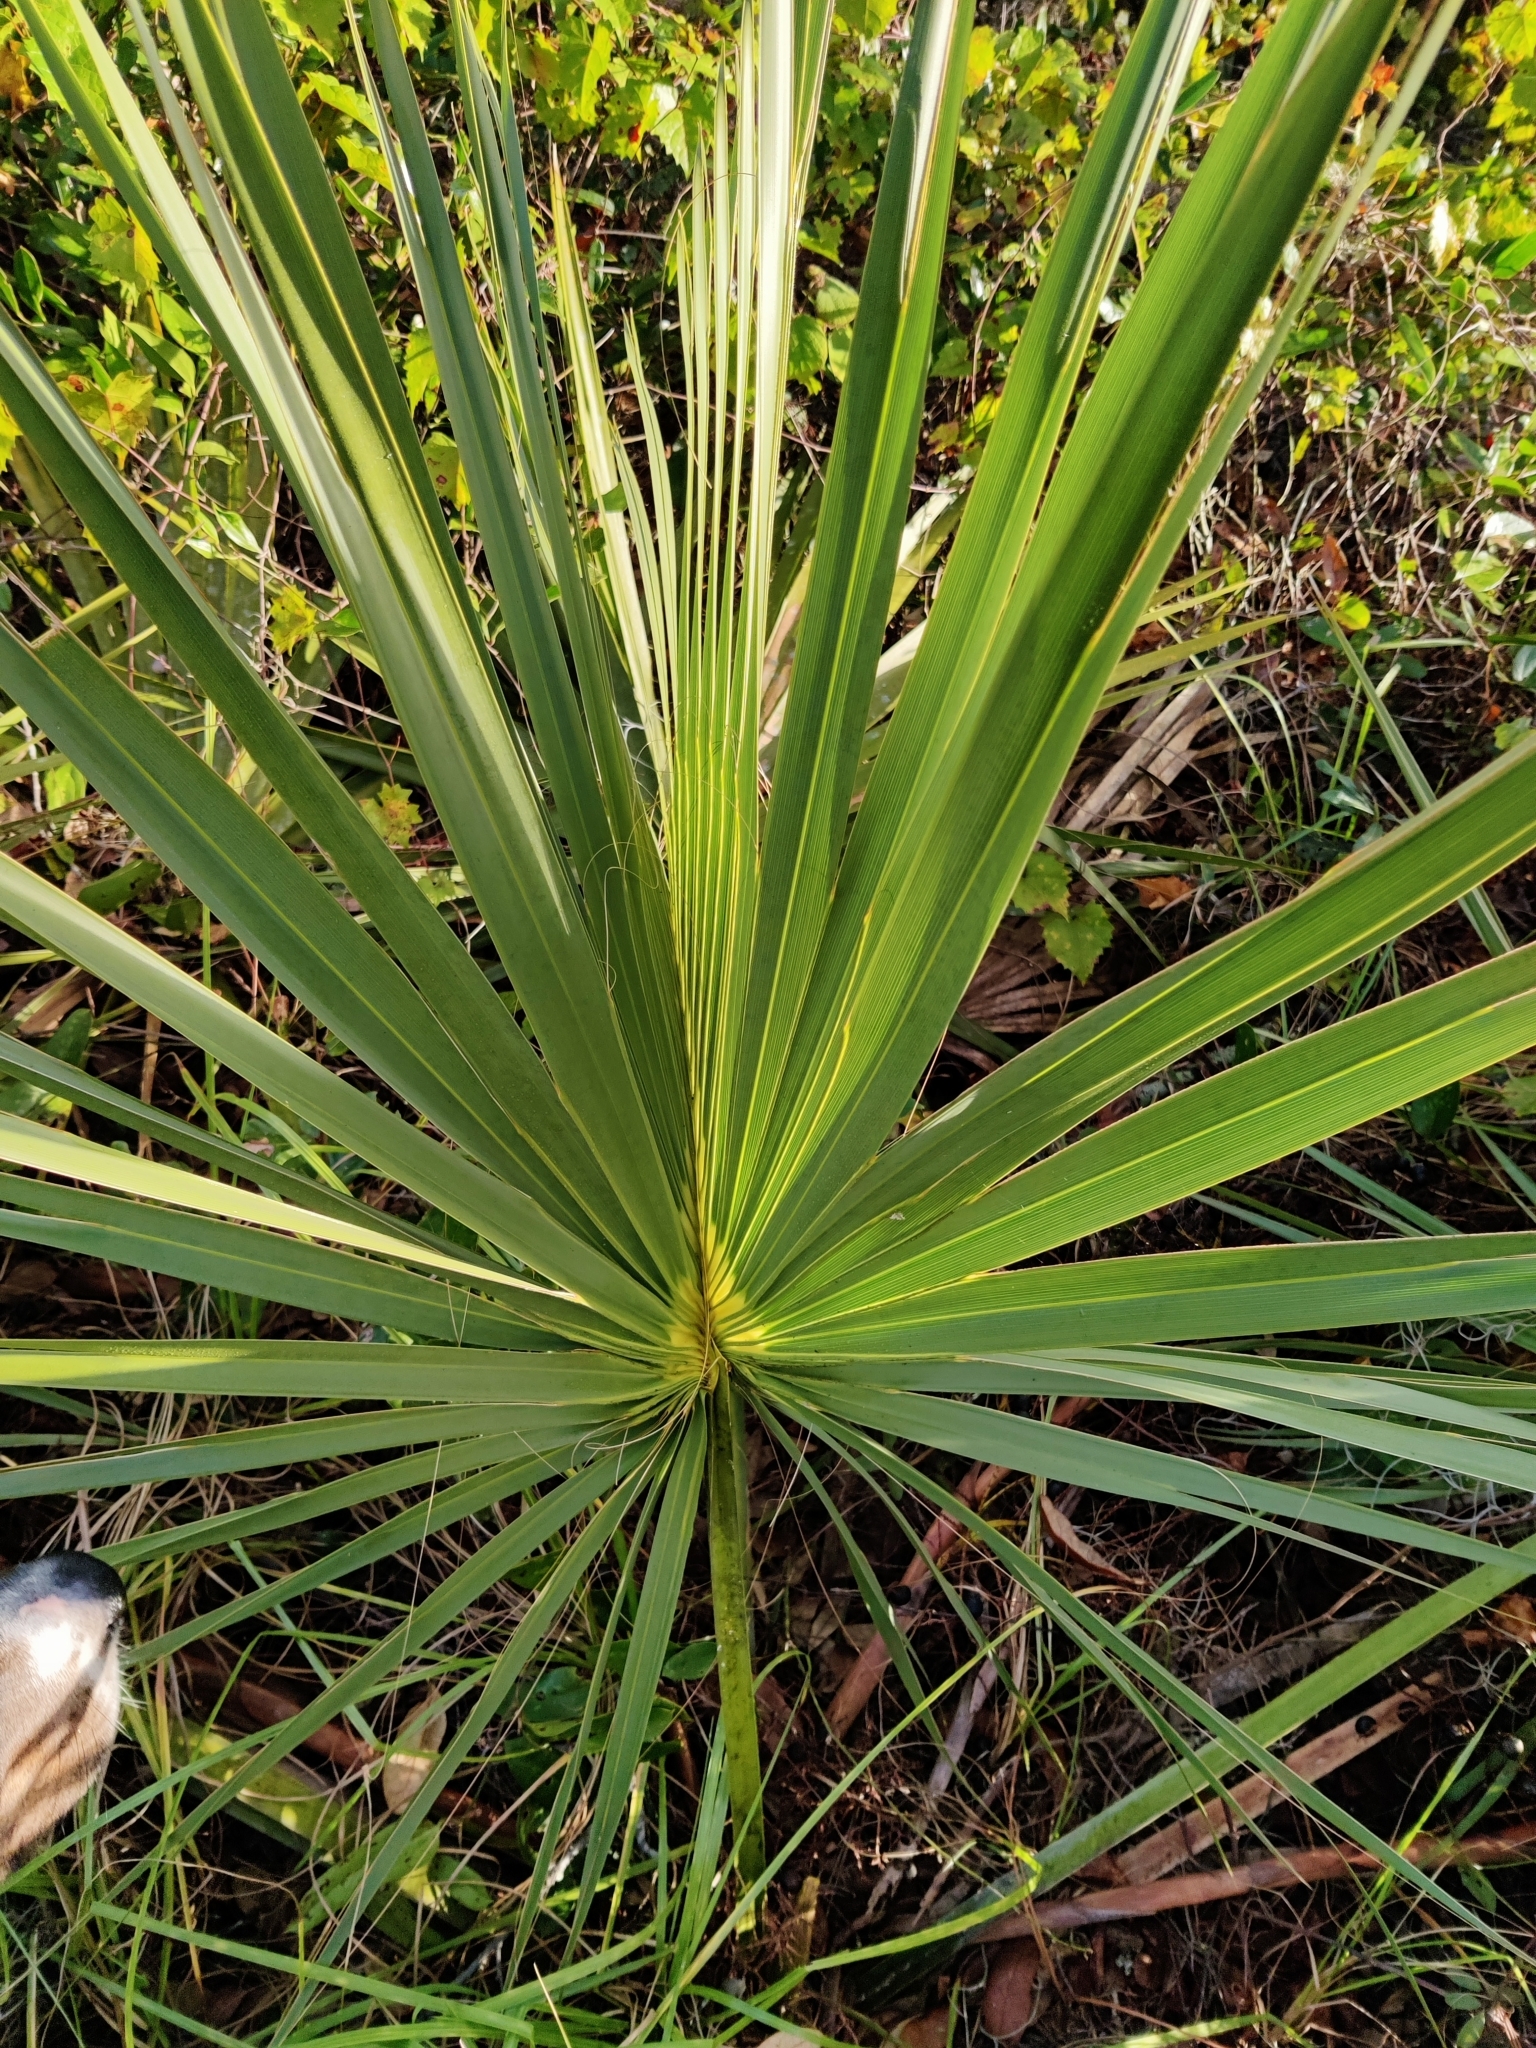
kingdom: Plantae
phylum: Tracheophyta
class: Liliopsida
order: Arecales
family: Arecaceae
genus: Sabal
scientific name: Sabal etonia
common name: Dwarf palmetto
